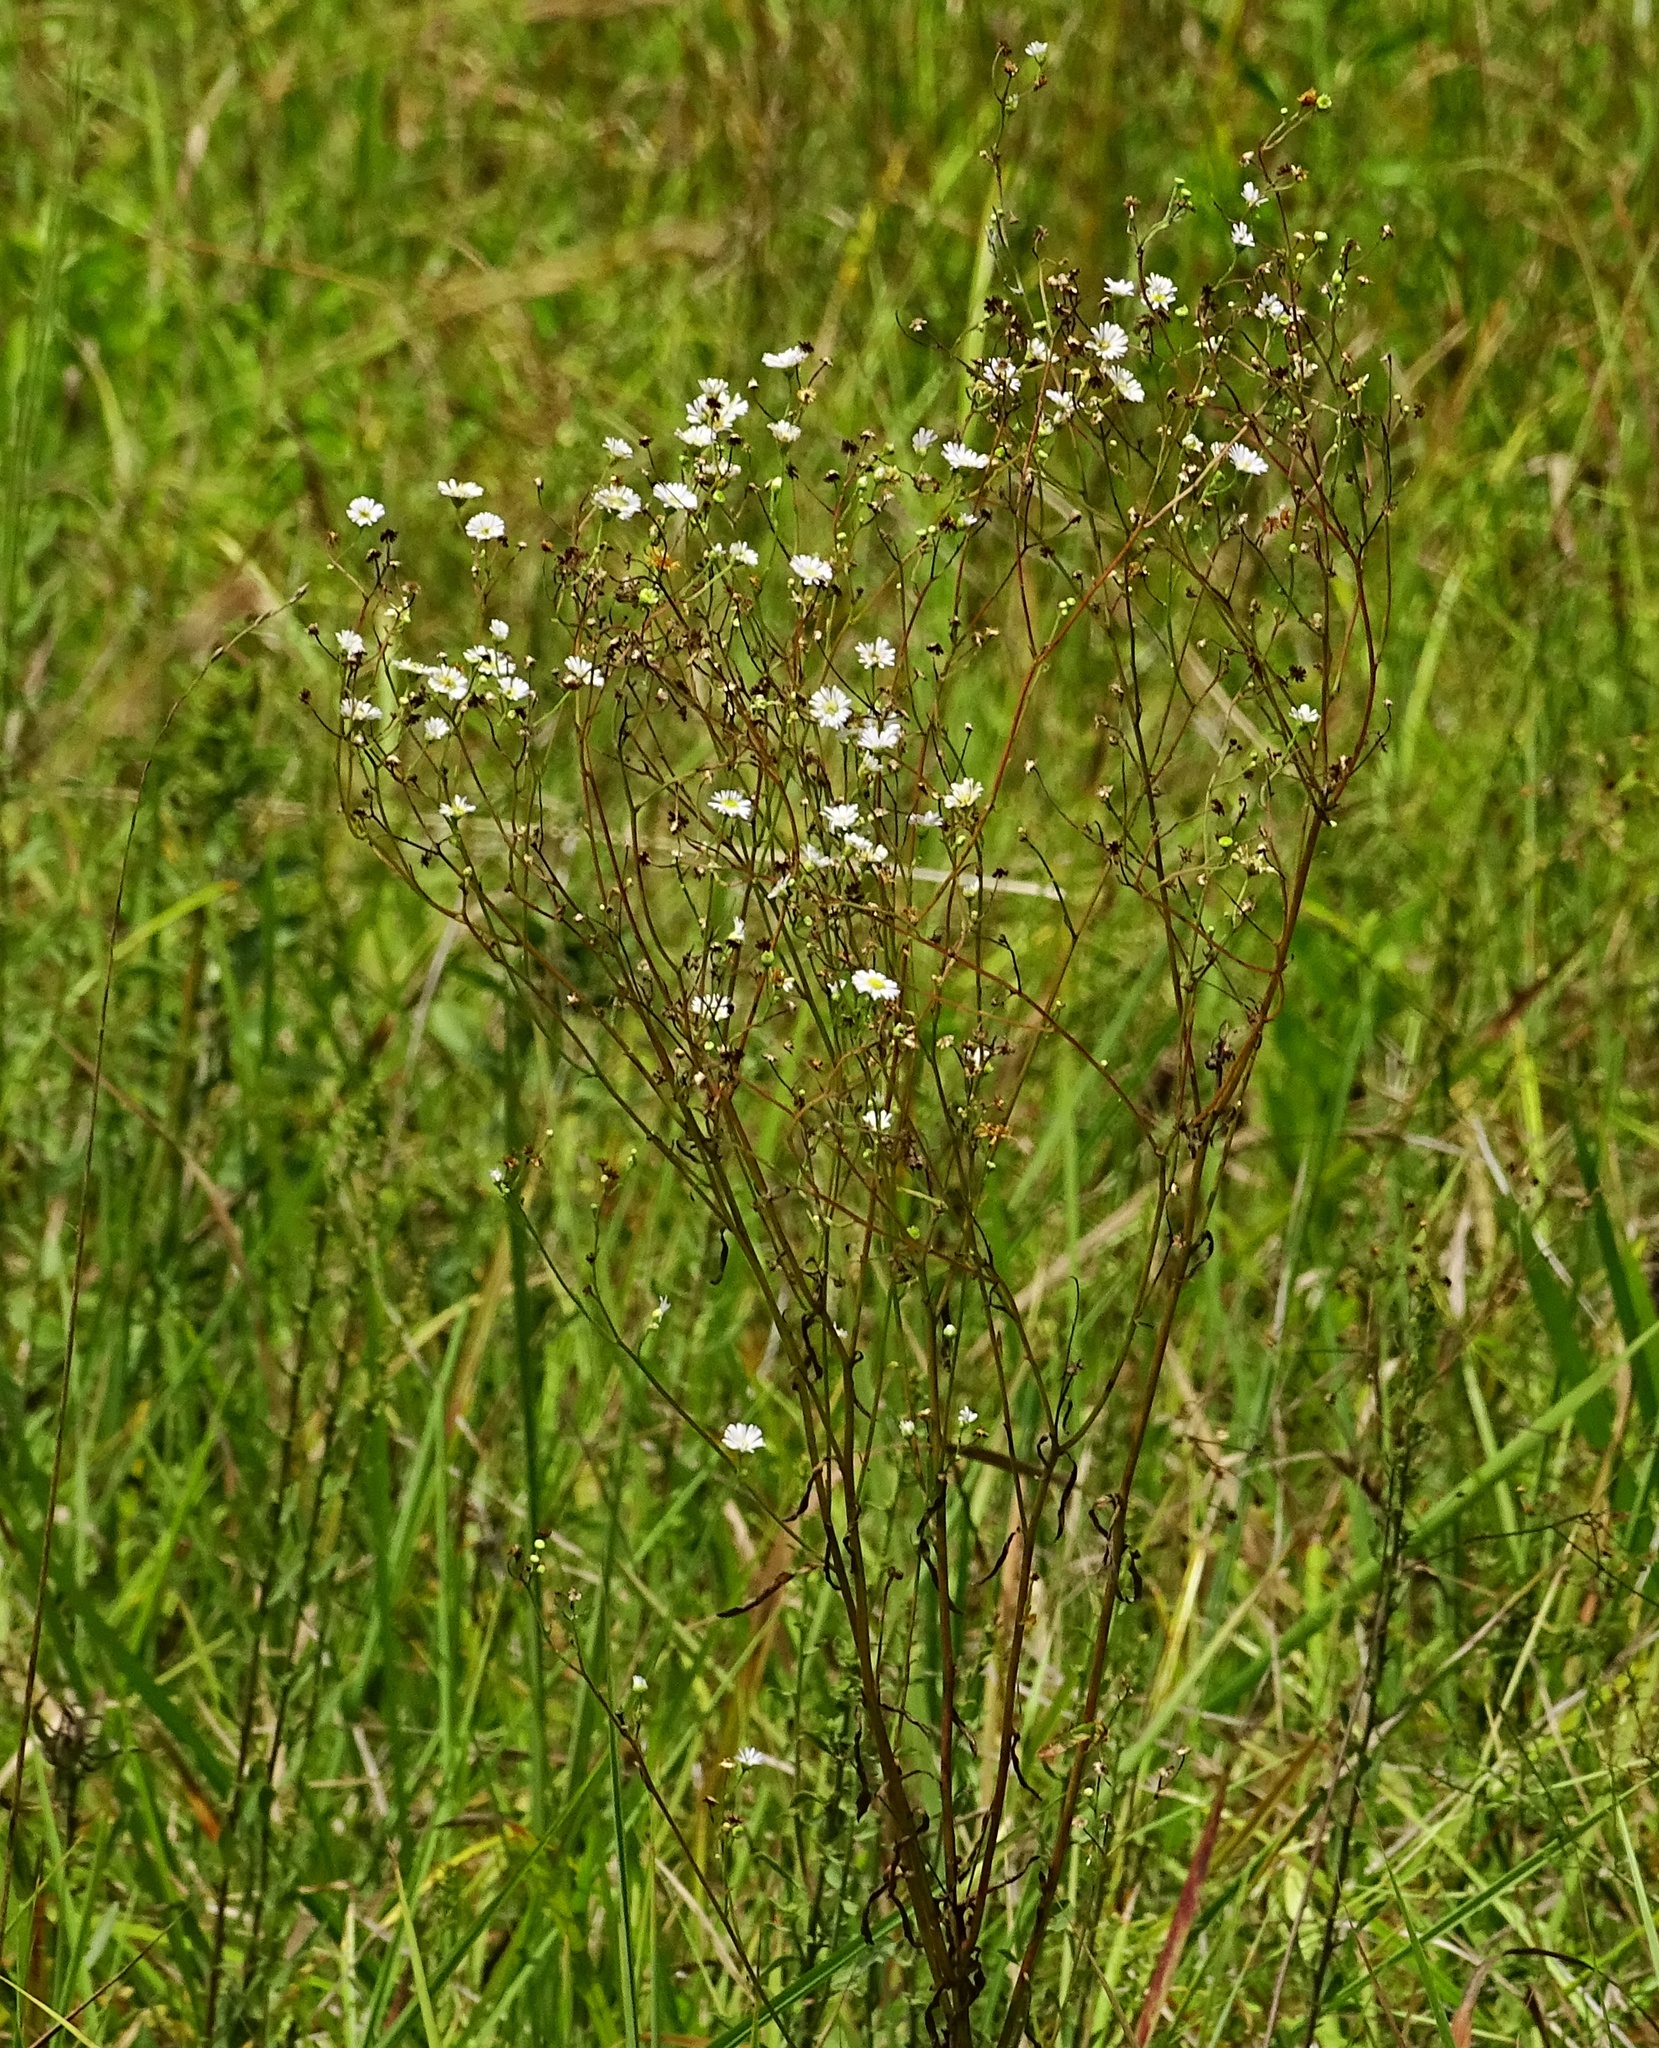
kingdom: Plantae
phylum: Tracheophyta
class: Magnoliopsida
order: Asterales
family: Asteraceae
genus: Erigeron
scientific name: Erigeron strigosus
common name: Common eastern fleabane
